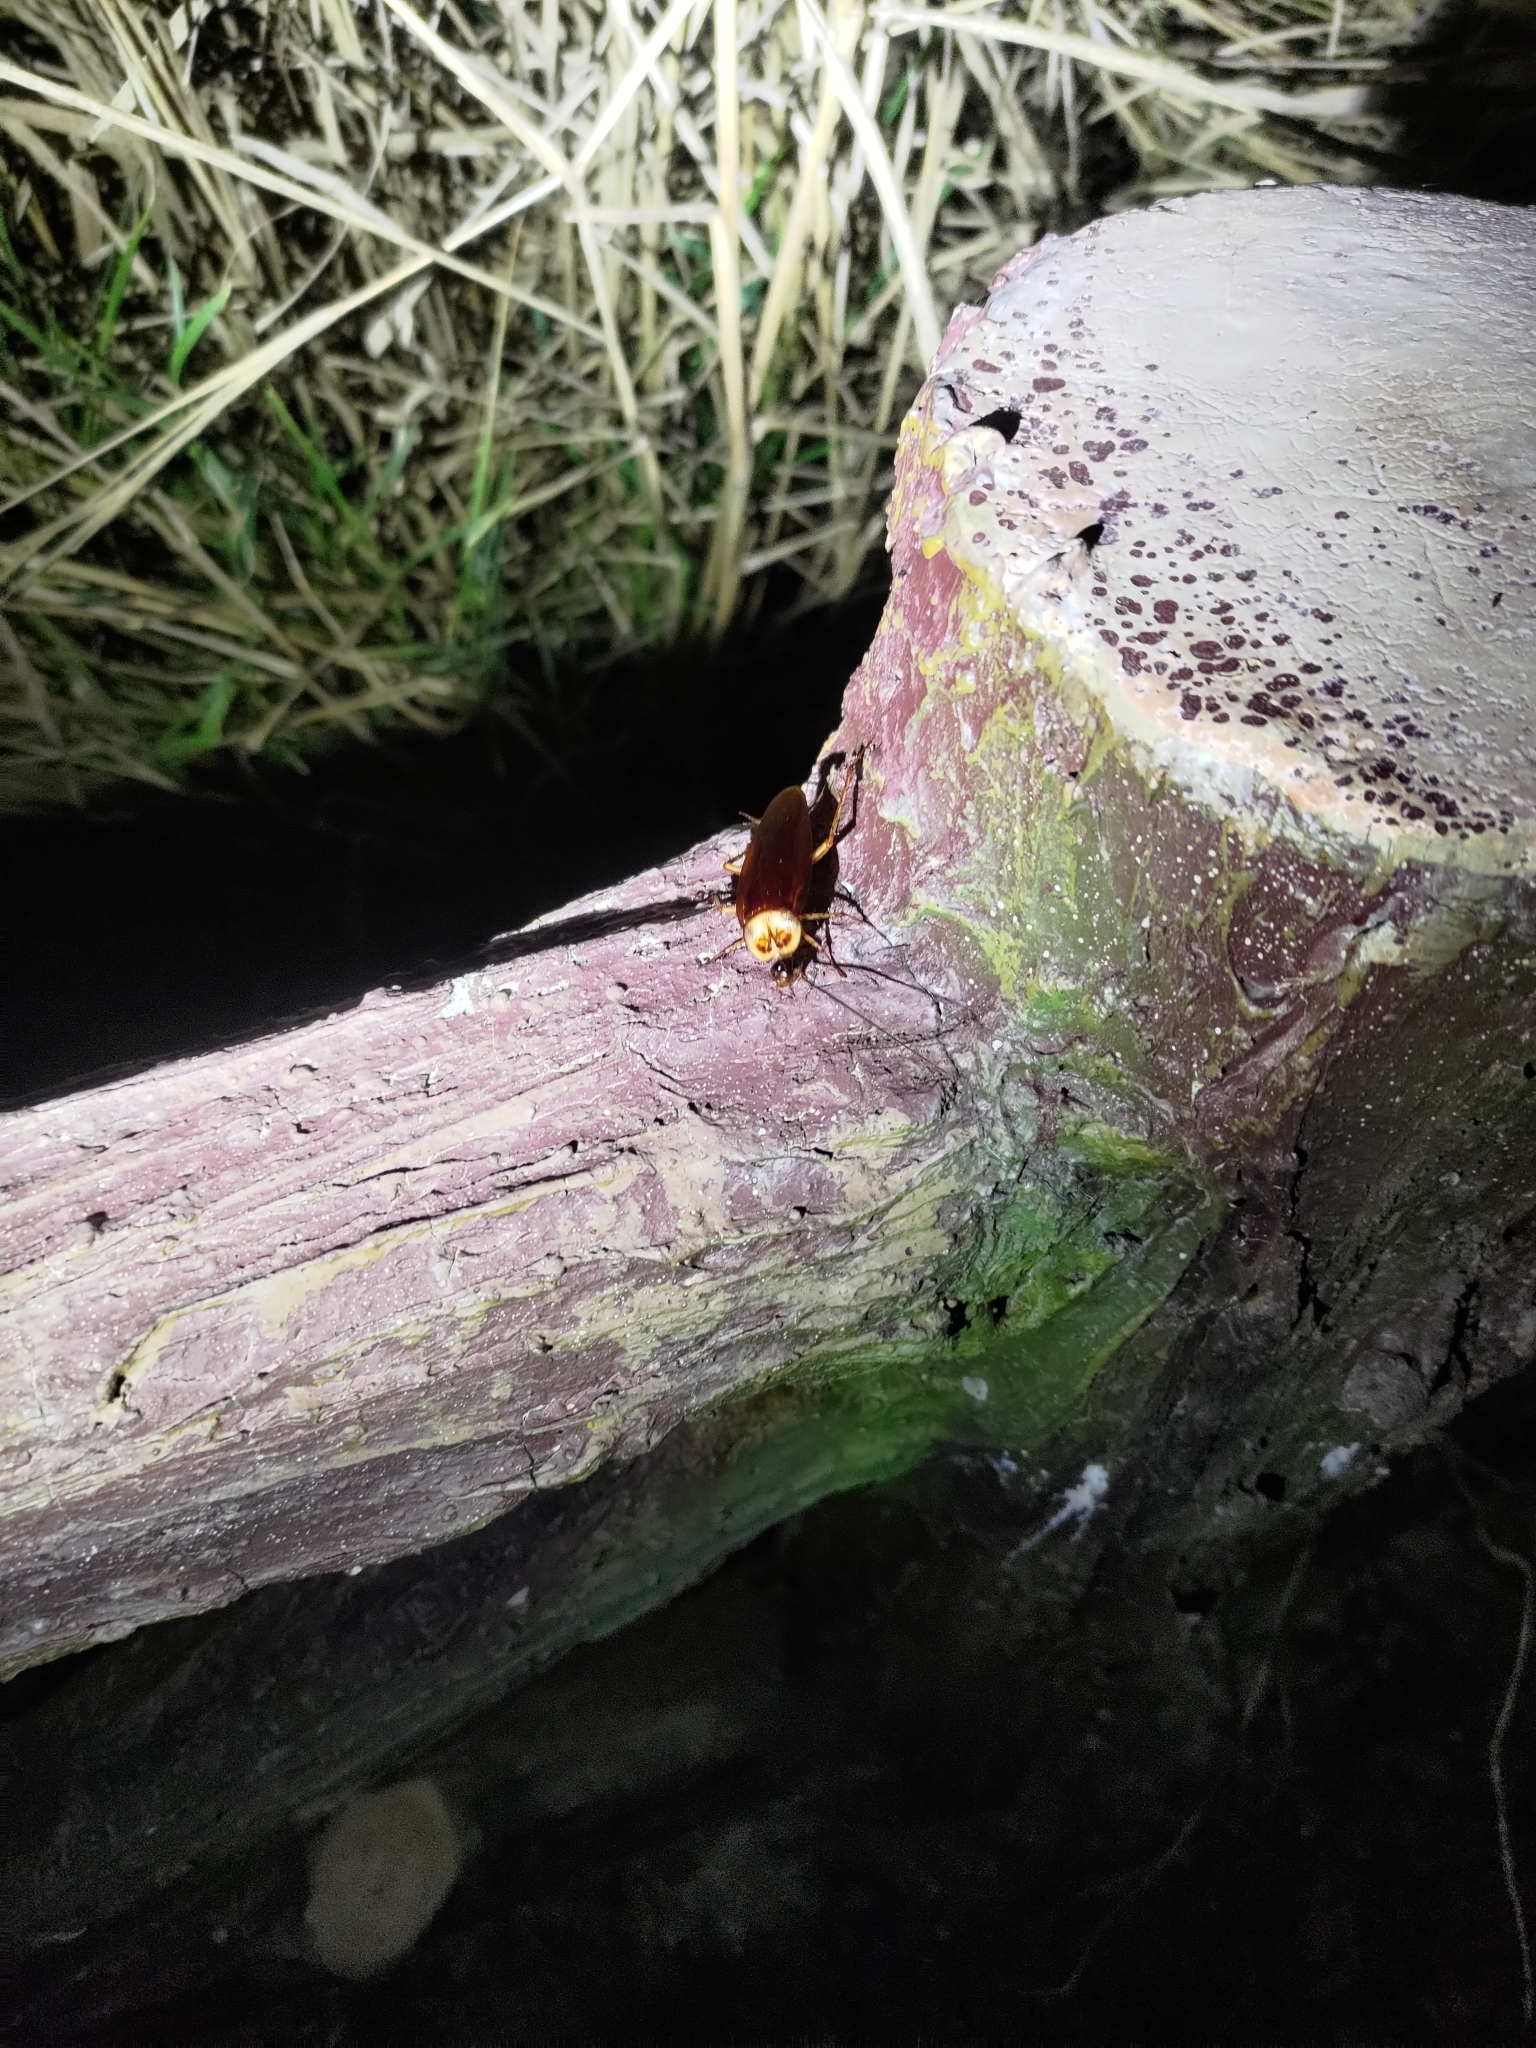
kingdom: Animalia
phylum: Arthropoda
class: Insecta
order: Blattodea
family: Blattidae
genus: Periplaneta
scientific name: Periplaneta americana
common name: American cockroach
